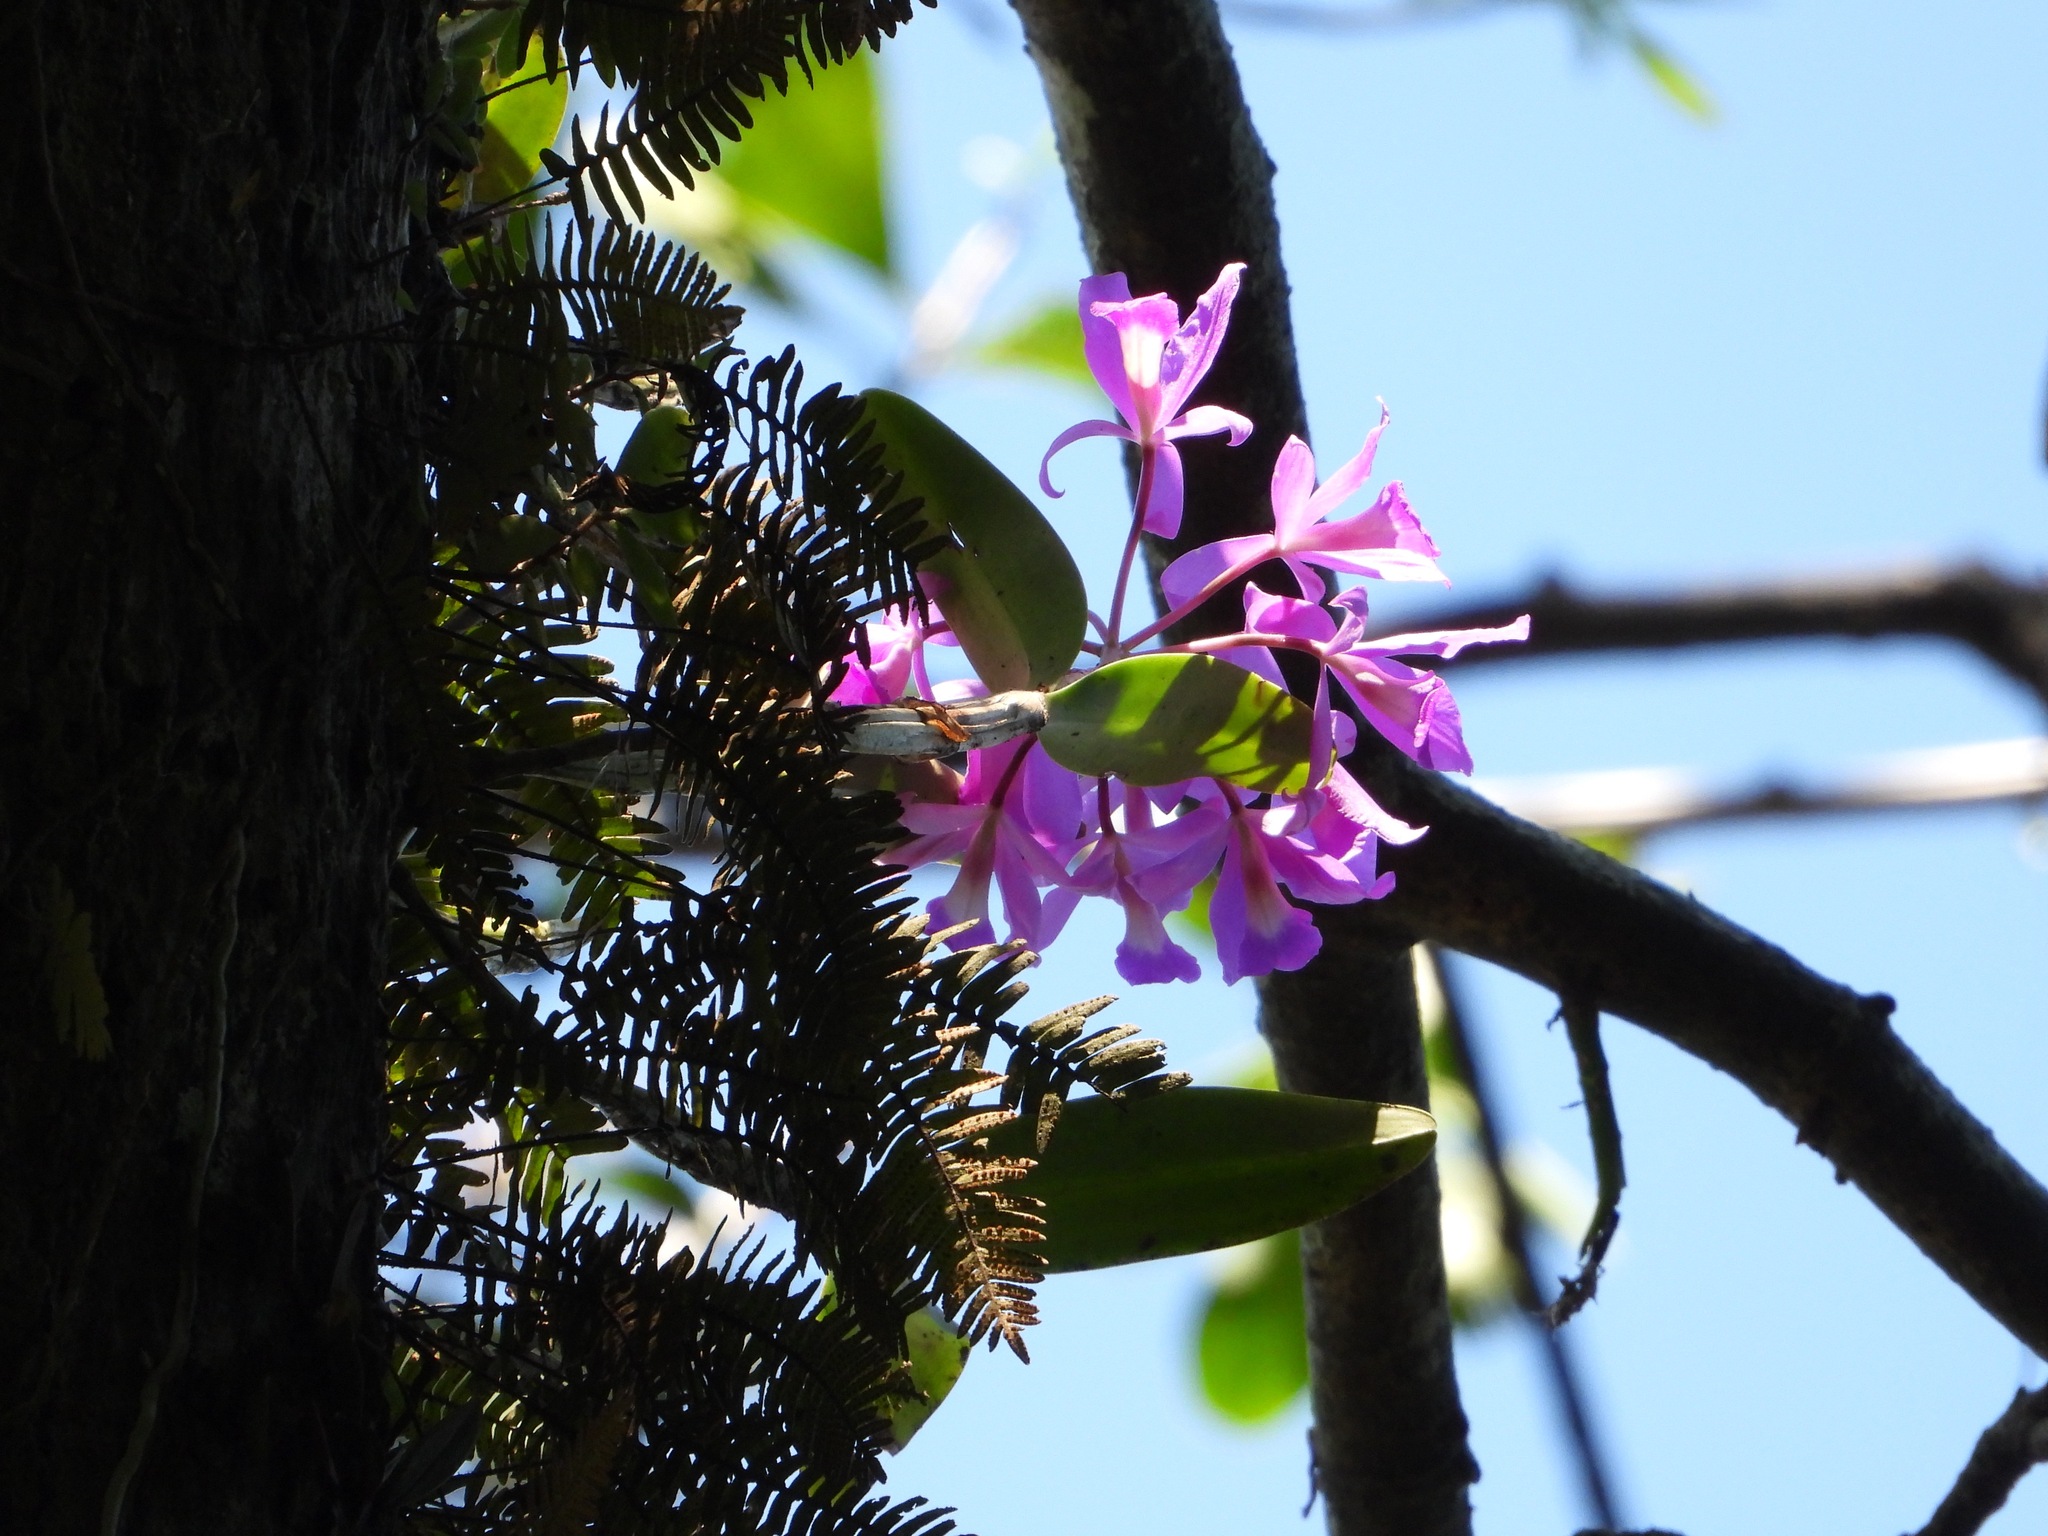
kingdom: Plantae
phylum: Tracheophyta
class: Liliopsida
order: Asparagales
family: Orchidaceae
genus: Guarianthe
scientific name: Guarianthe skinneri
